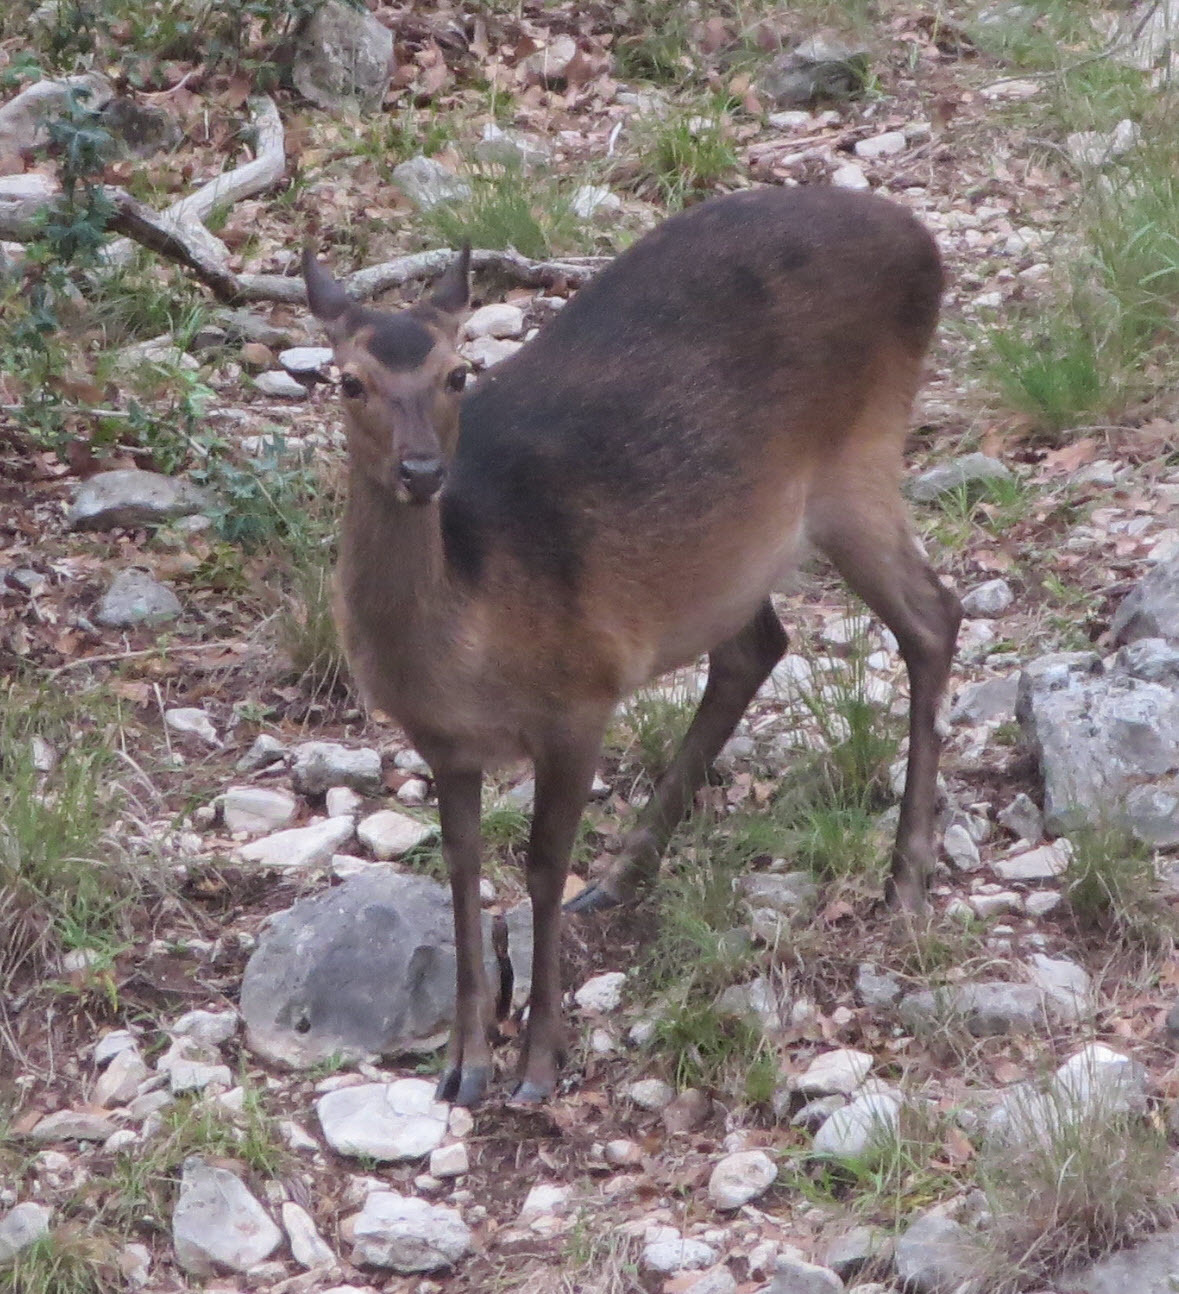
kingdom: Animalia
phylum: Chordata
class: Mammalia
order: Artiodactyla
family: Cervidae
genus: Cervus
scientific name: Cervus nippon
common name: Sika deer
